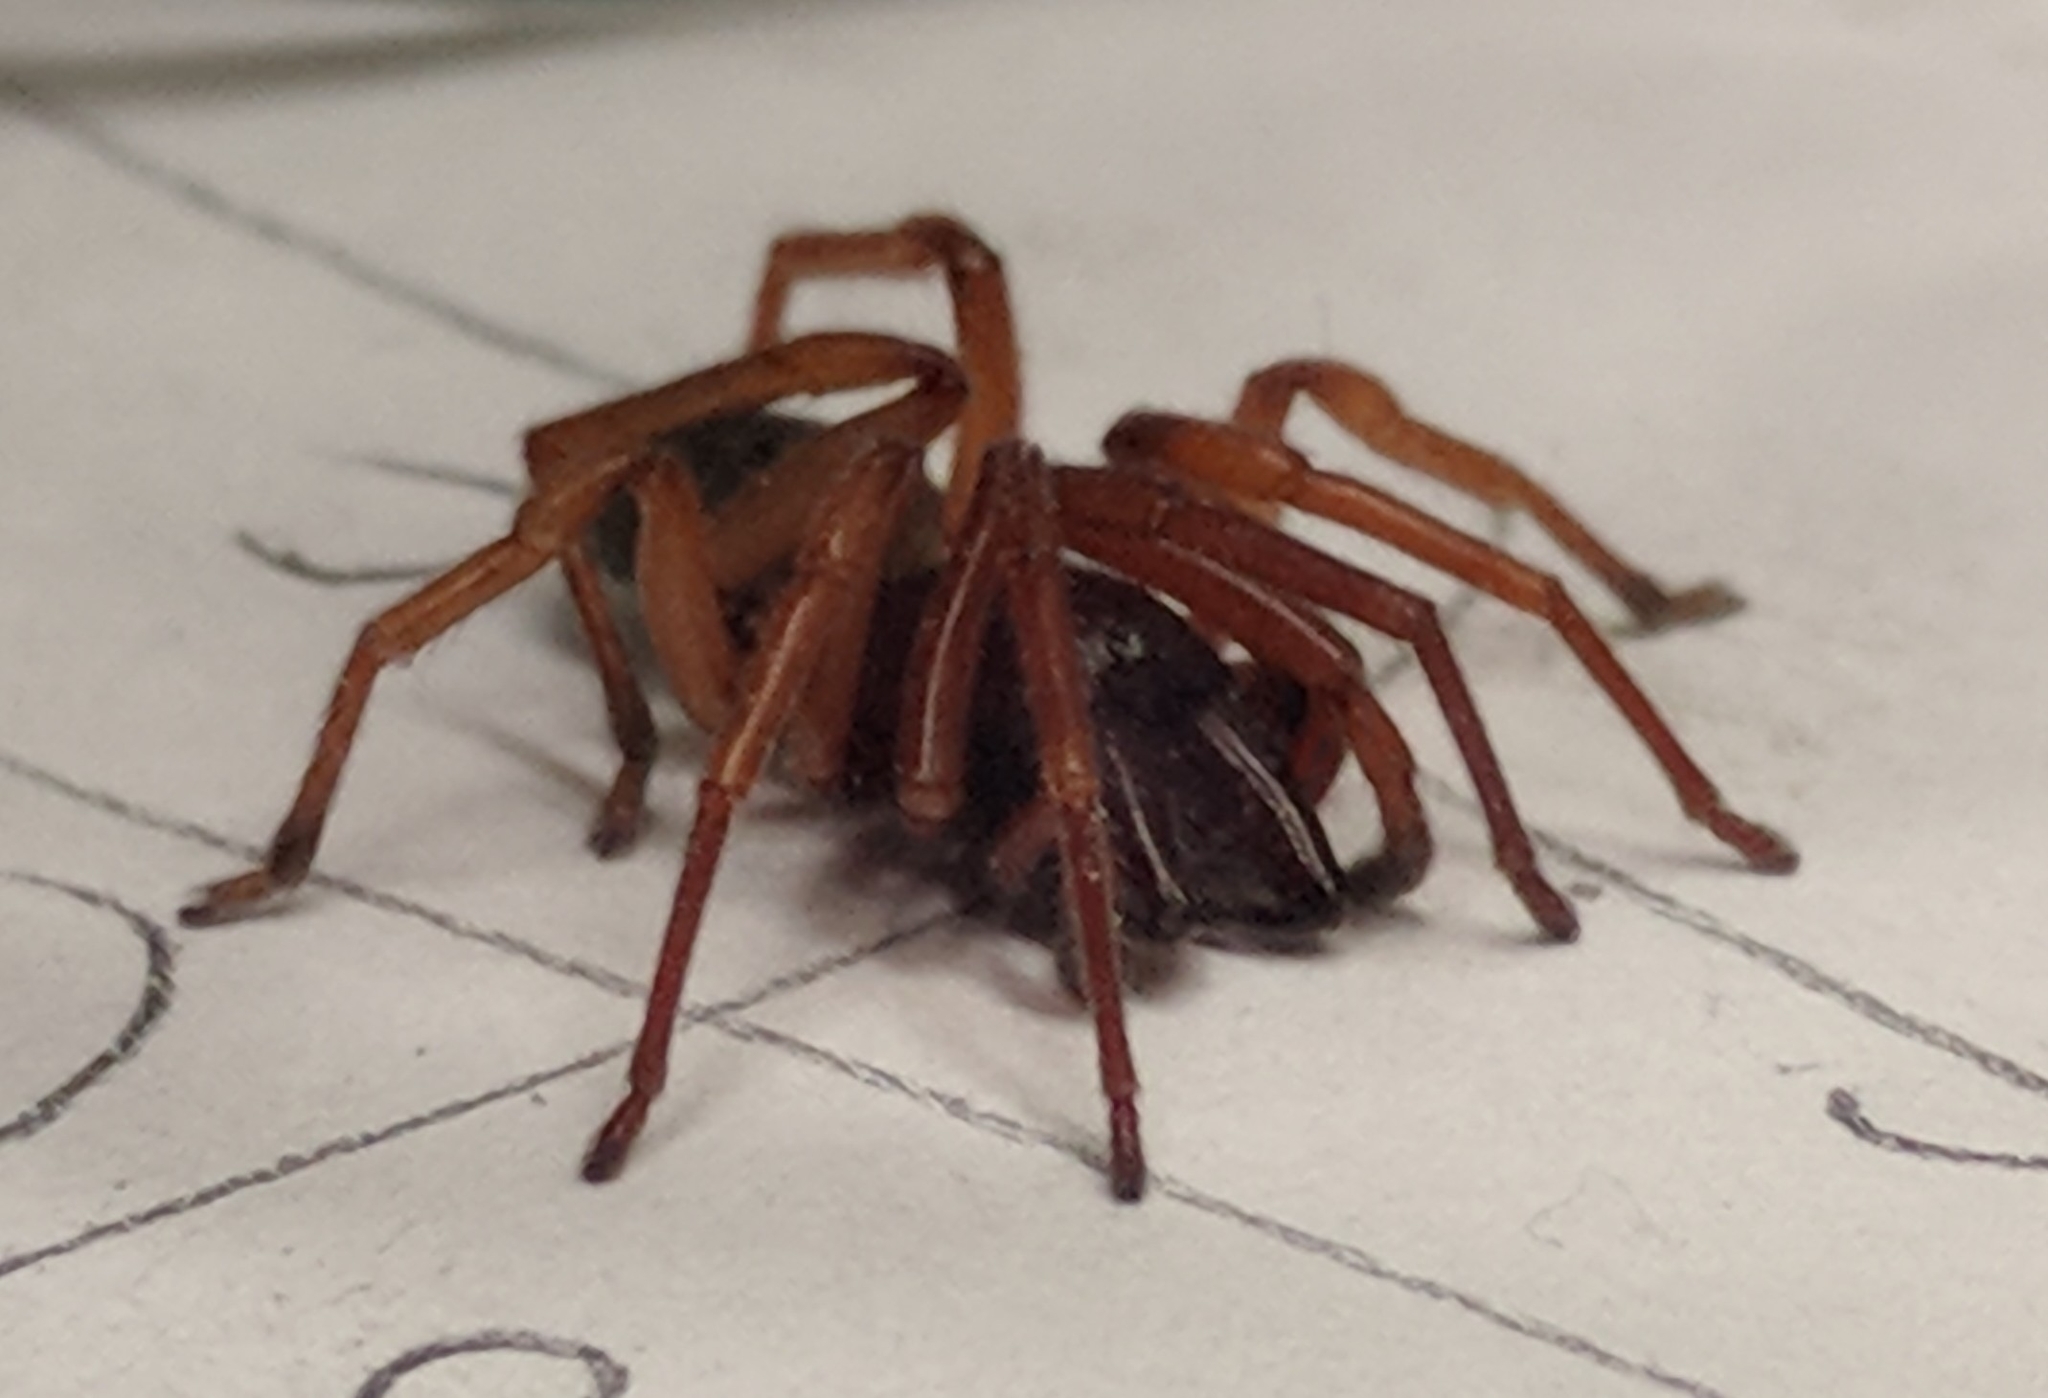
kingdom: Animalia
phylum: Arthropoda
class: Arachnida
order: Araneae
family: Dysderidae
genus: Dysdera
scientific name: Dysdera crocata
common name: Woodlouse spider
